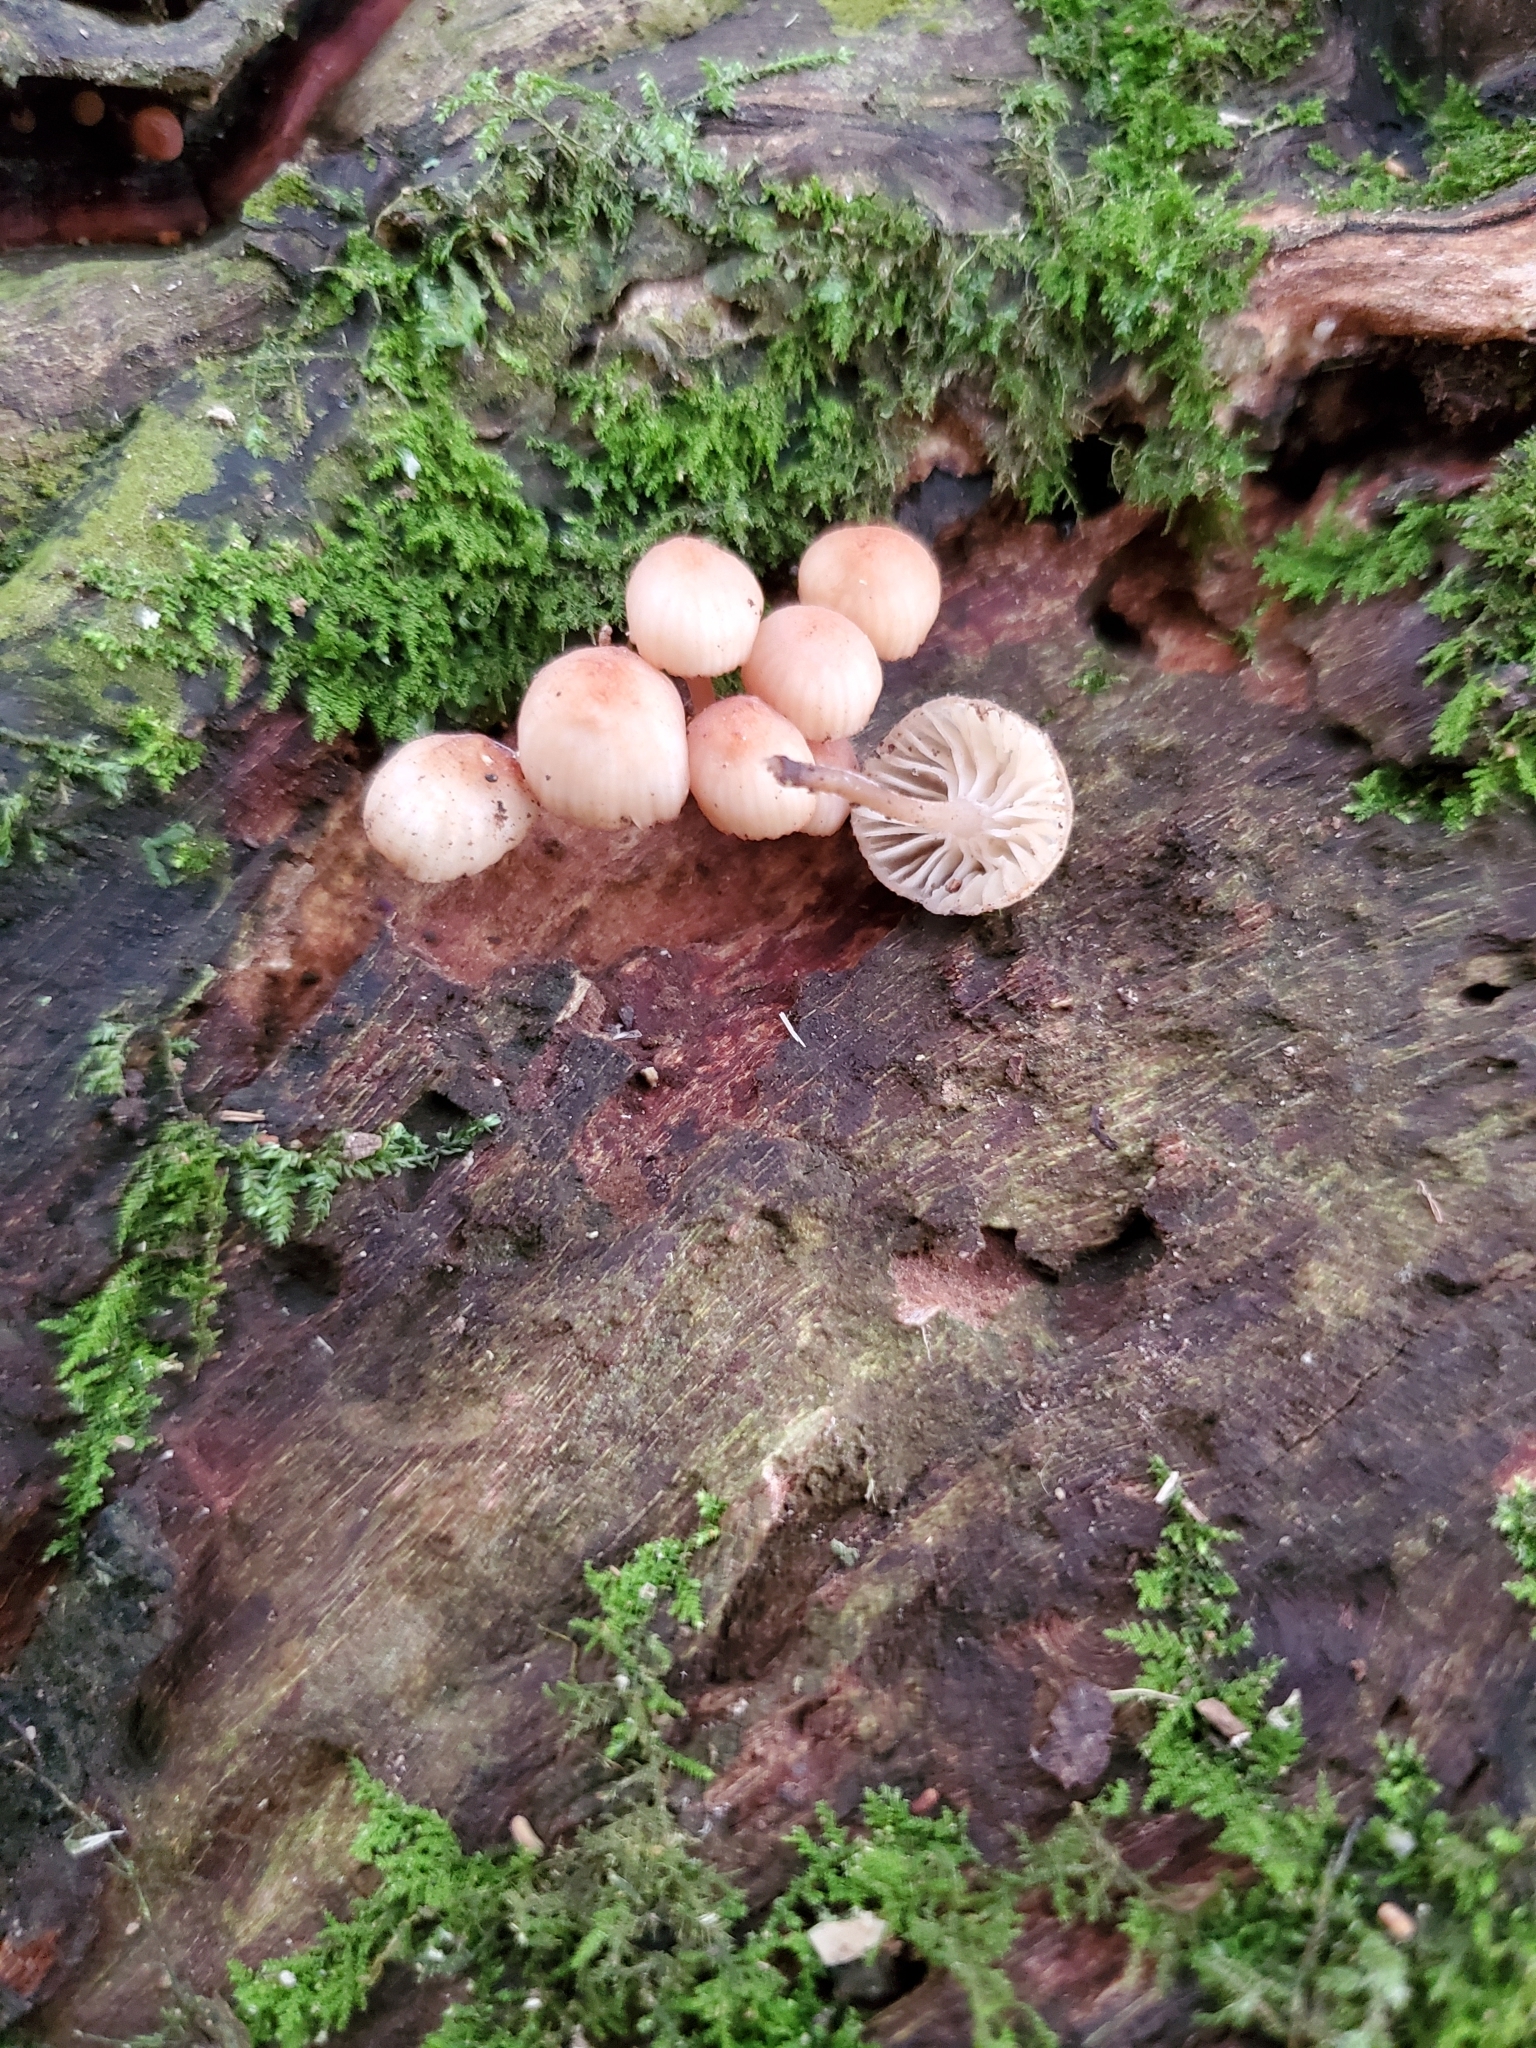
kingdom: Fungi
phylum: Basidiomycota
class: Agaricomycetes
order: Agaricales
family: Mycenaceae
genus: Mycena
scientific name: Mycena roseoflava
